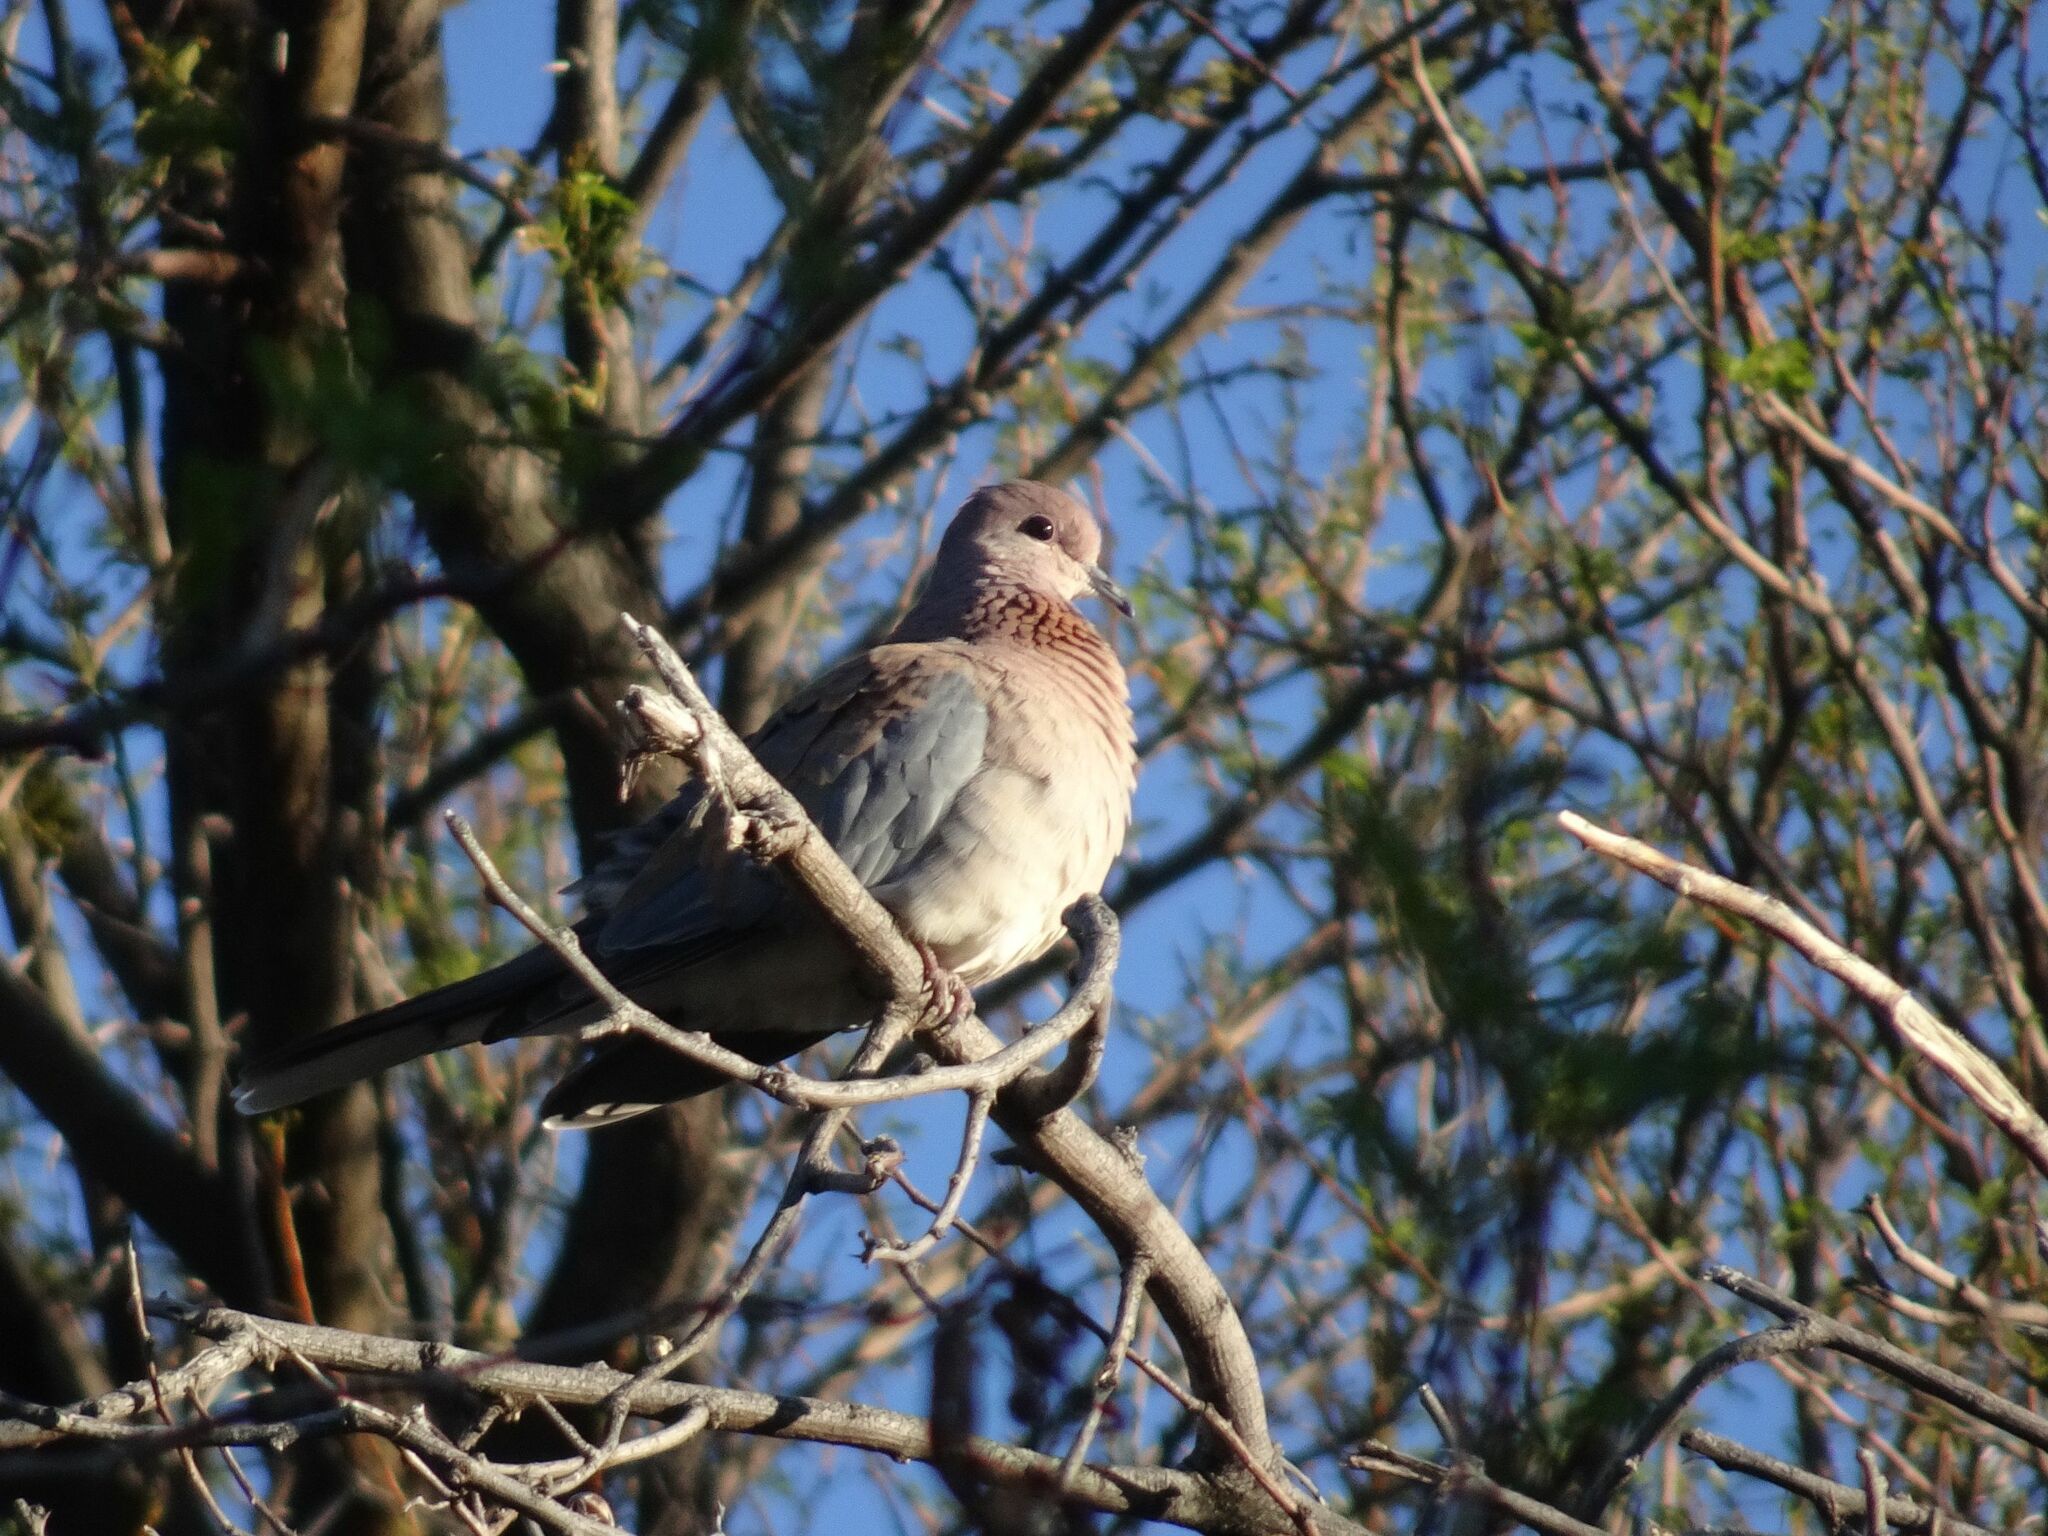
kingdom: Animalia
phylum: Chordata
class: Aves
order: Columbiformes
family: Columbidae
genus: Spilopelia
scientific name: Spilopelia senegalensis
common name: Laughing dove
